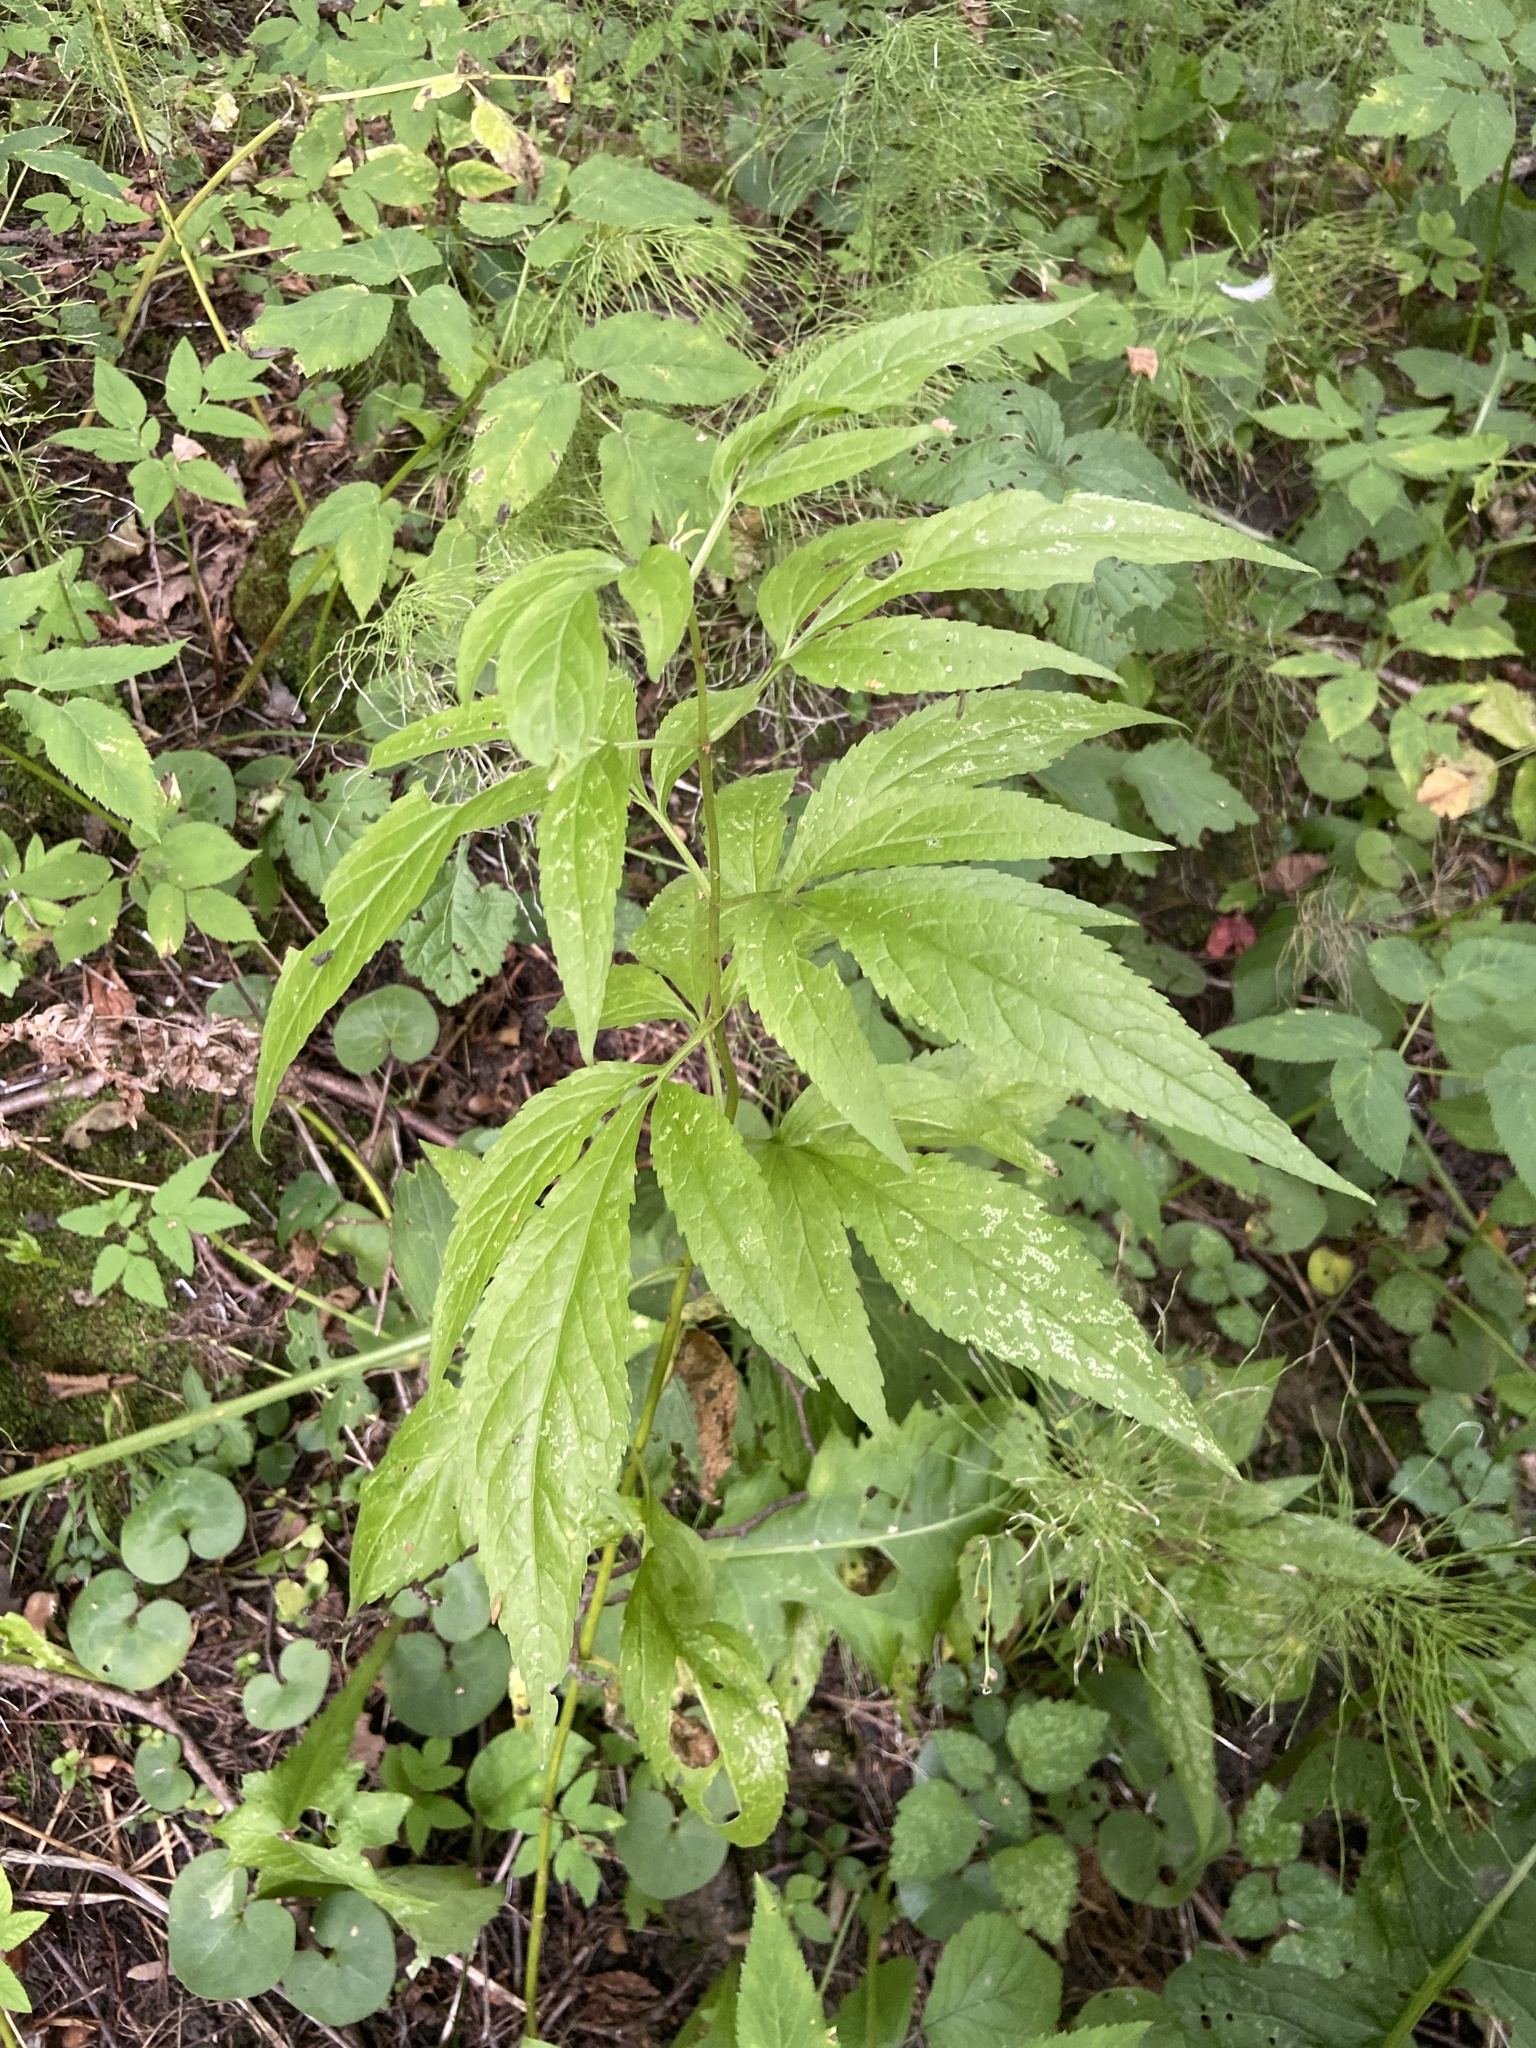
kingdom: Plantae
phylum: Tracheophyta
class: Magnoliopsida
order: Asterales
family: Asteraceae
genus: Eupatorium
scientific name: Eupatorium cannabinum
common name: Hemp-agrimony
